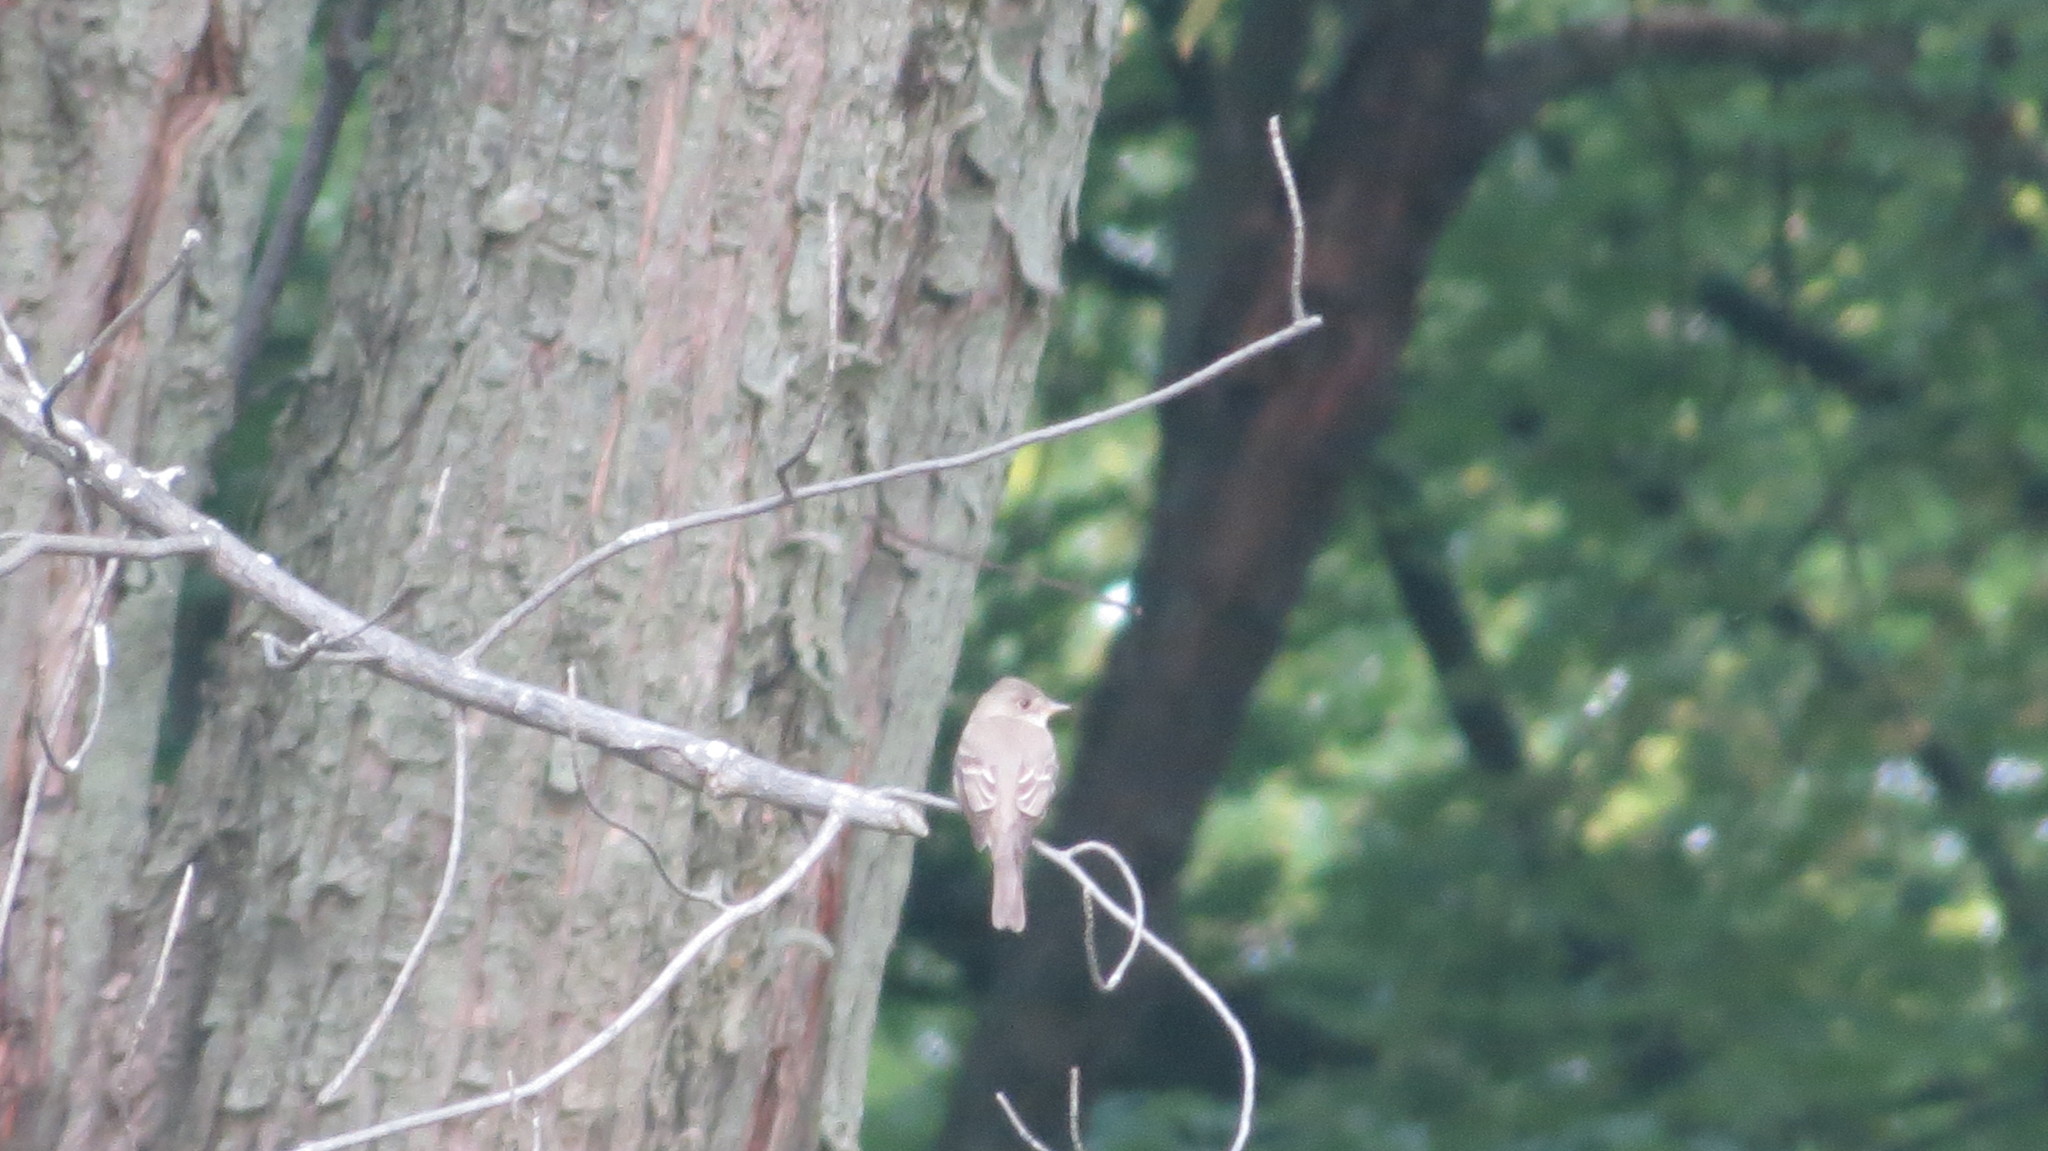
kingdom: Animalia
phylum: Chordata
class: Aves
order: Passeriformes
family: Tyrannidae
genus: Empidonax
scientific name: Empidonax alnorum
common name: Alder flycatcher
